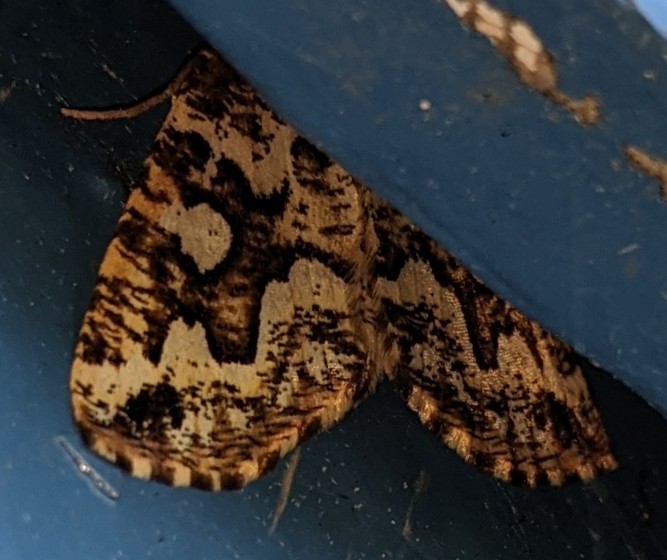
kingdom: Animalia
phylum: Arthropoda
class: Insecta
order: Lepidoptera
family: Geometridae
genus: Caripeta
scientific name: Caripeta divisata
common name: Gray spruce looper
